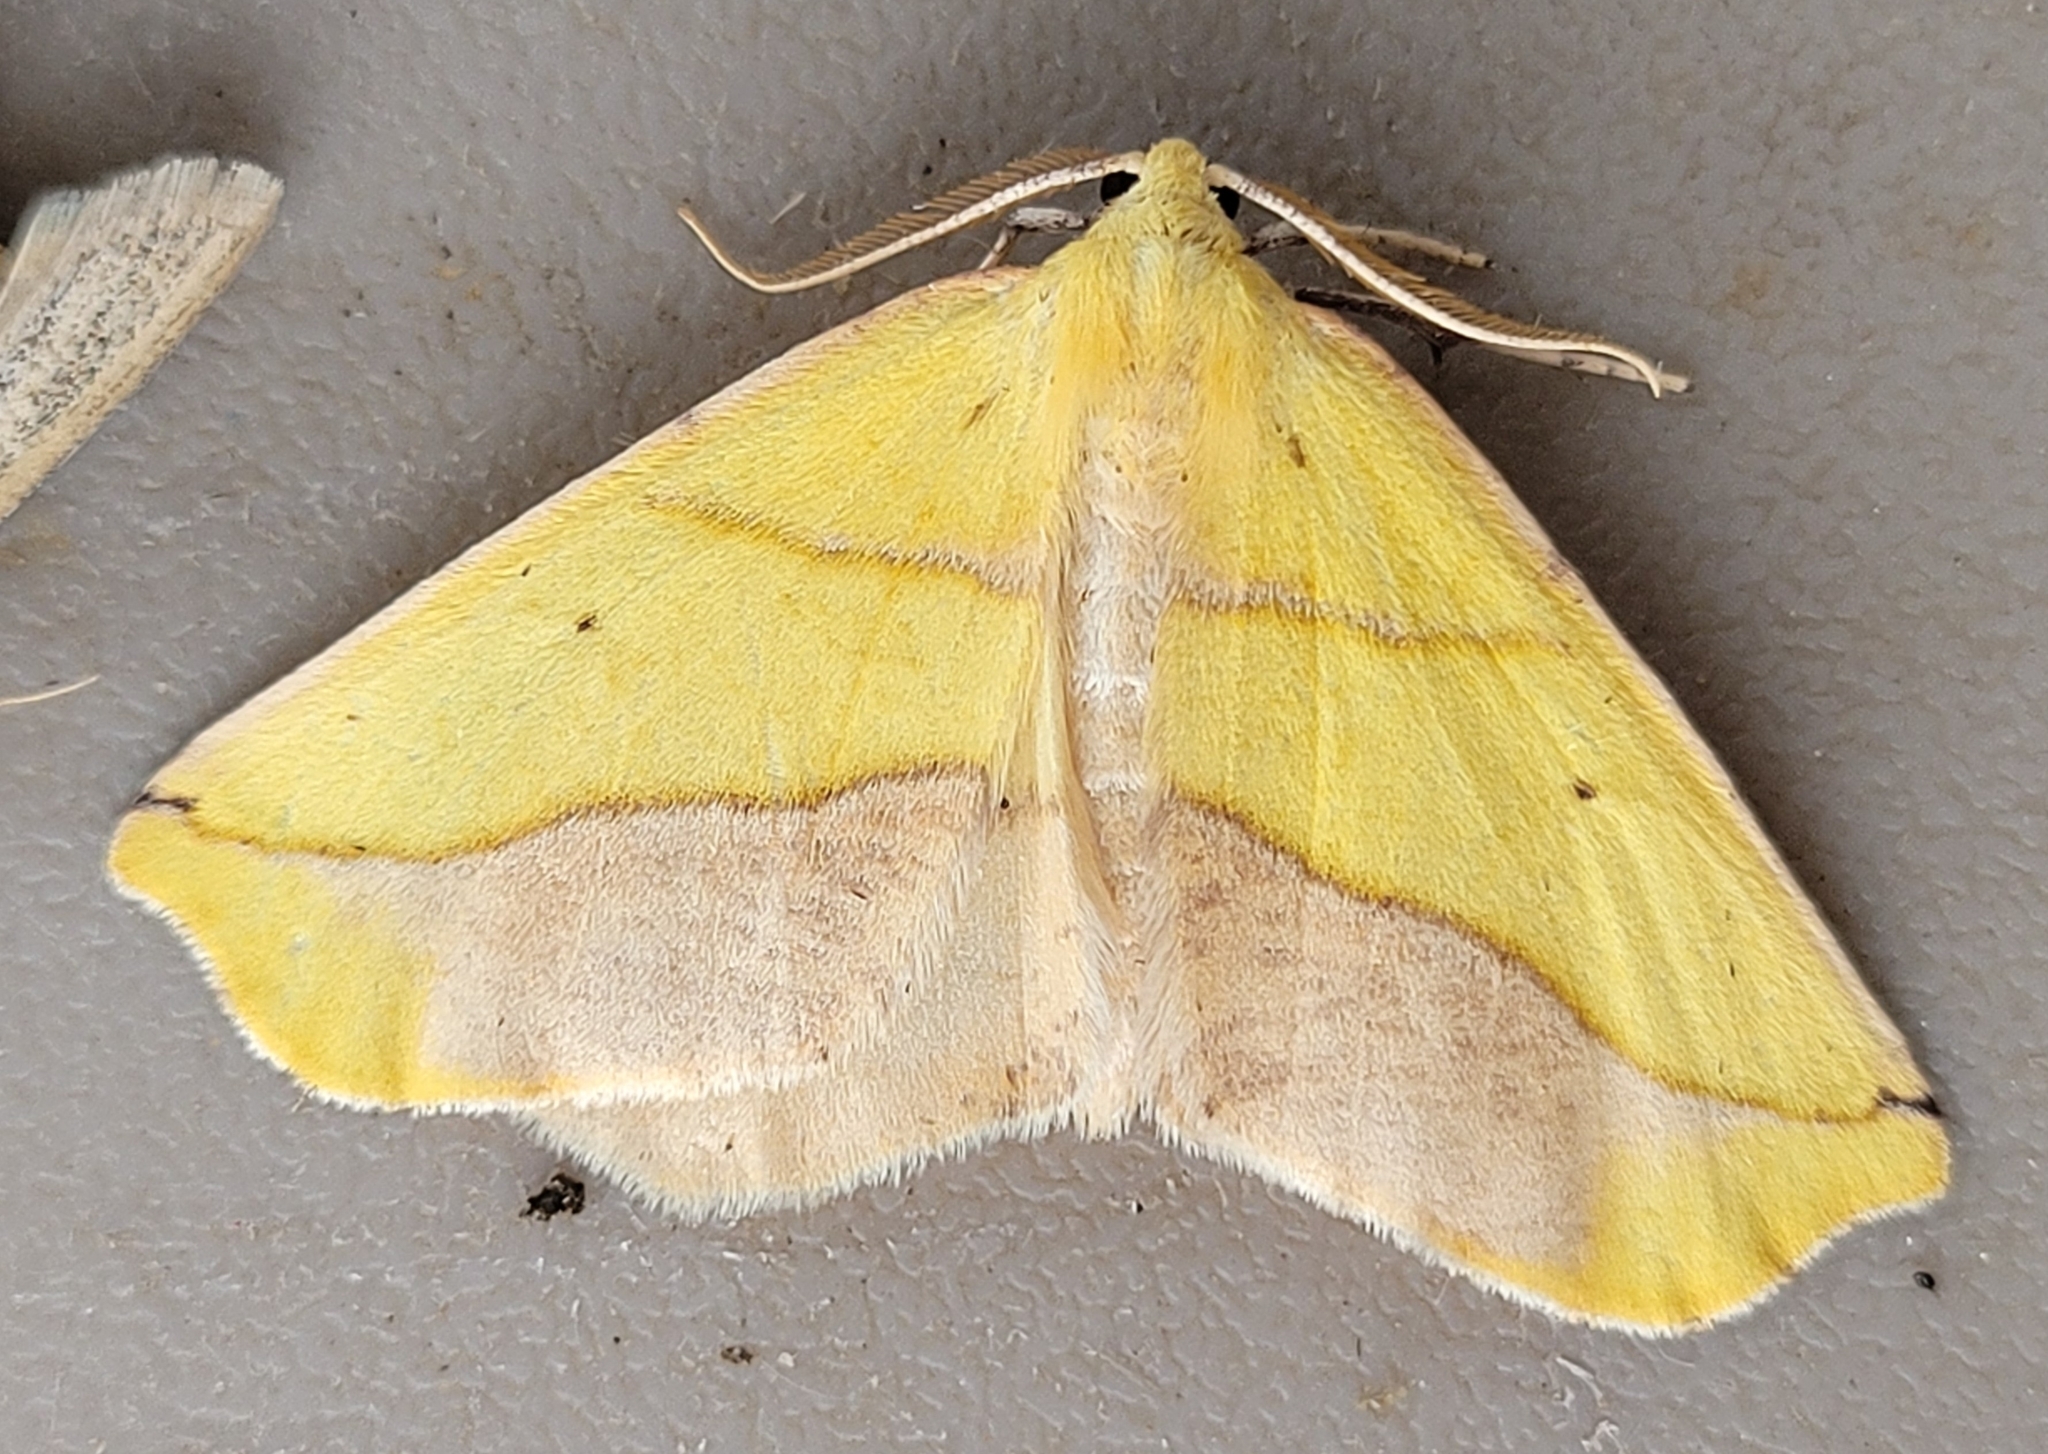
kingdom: Animalia
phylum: Arthropoda
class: Insecta
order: Lepidoptera
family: Geometridae
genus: Sicya
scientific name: Sicya macularia
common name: Sharp-lined yellow
